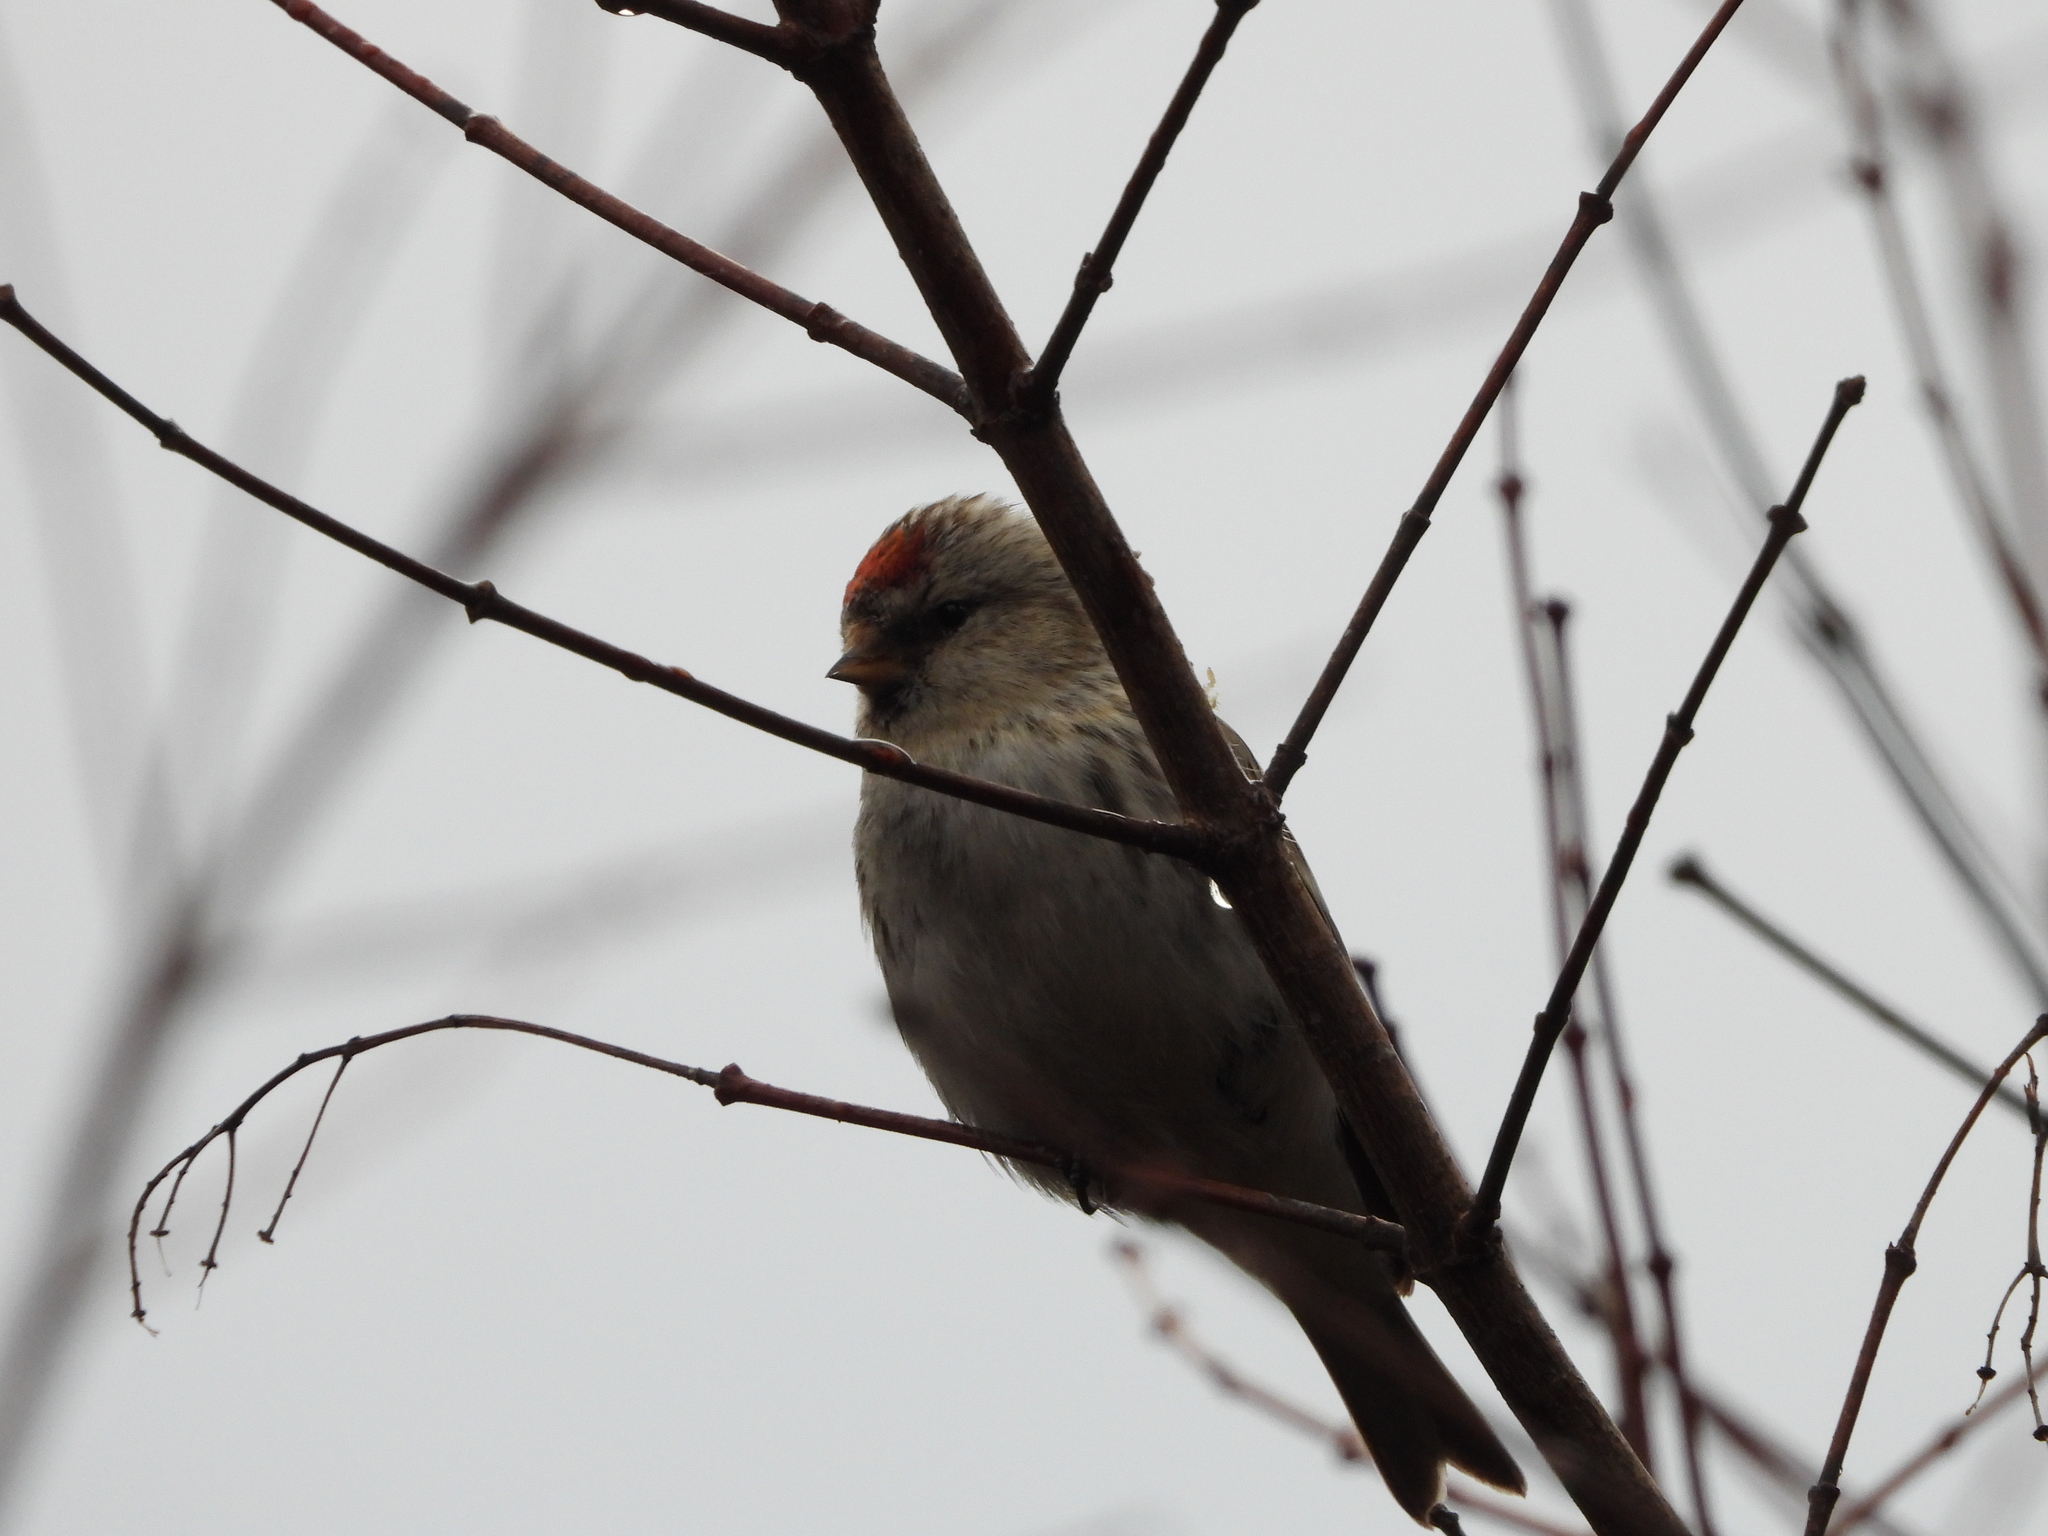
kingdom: Animalia
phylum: Chordata
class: Aves
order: Passeriformes
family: Fringillidae
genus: Acanthis
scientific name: Acanthis flammea
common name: Common redpoll
